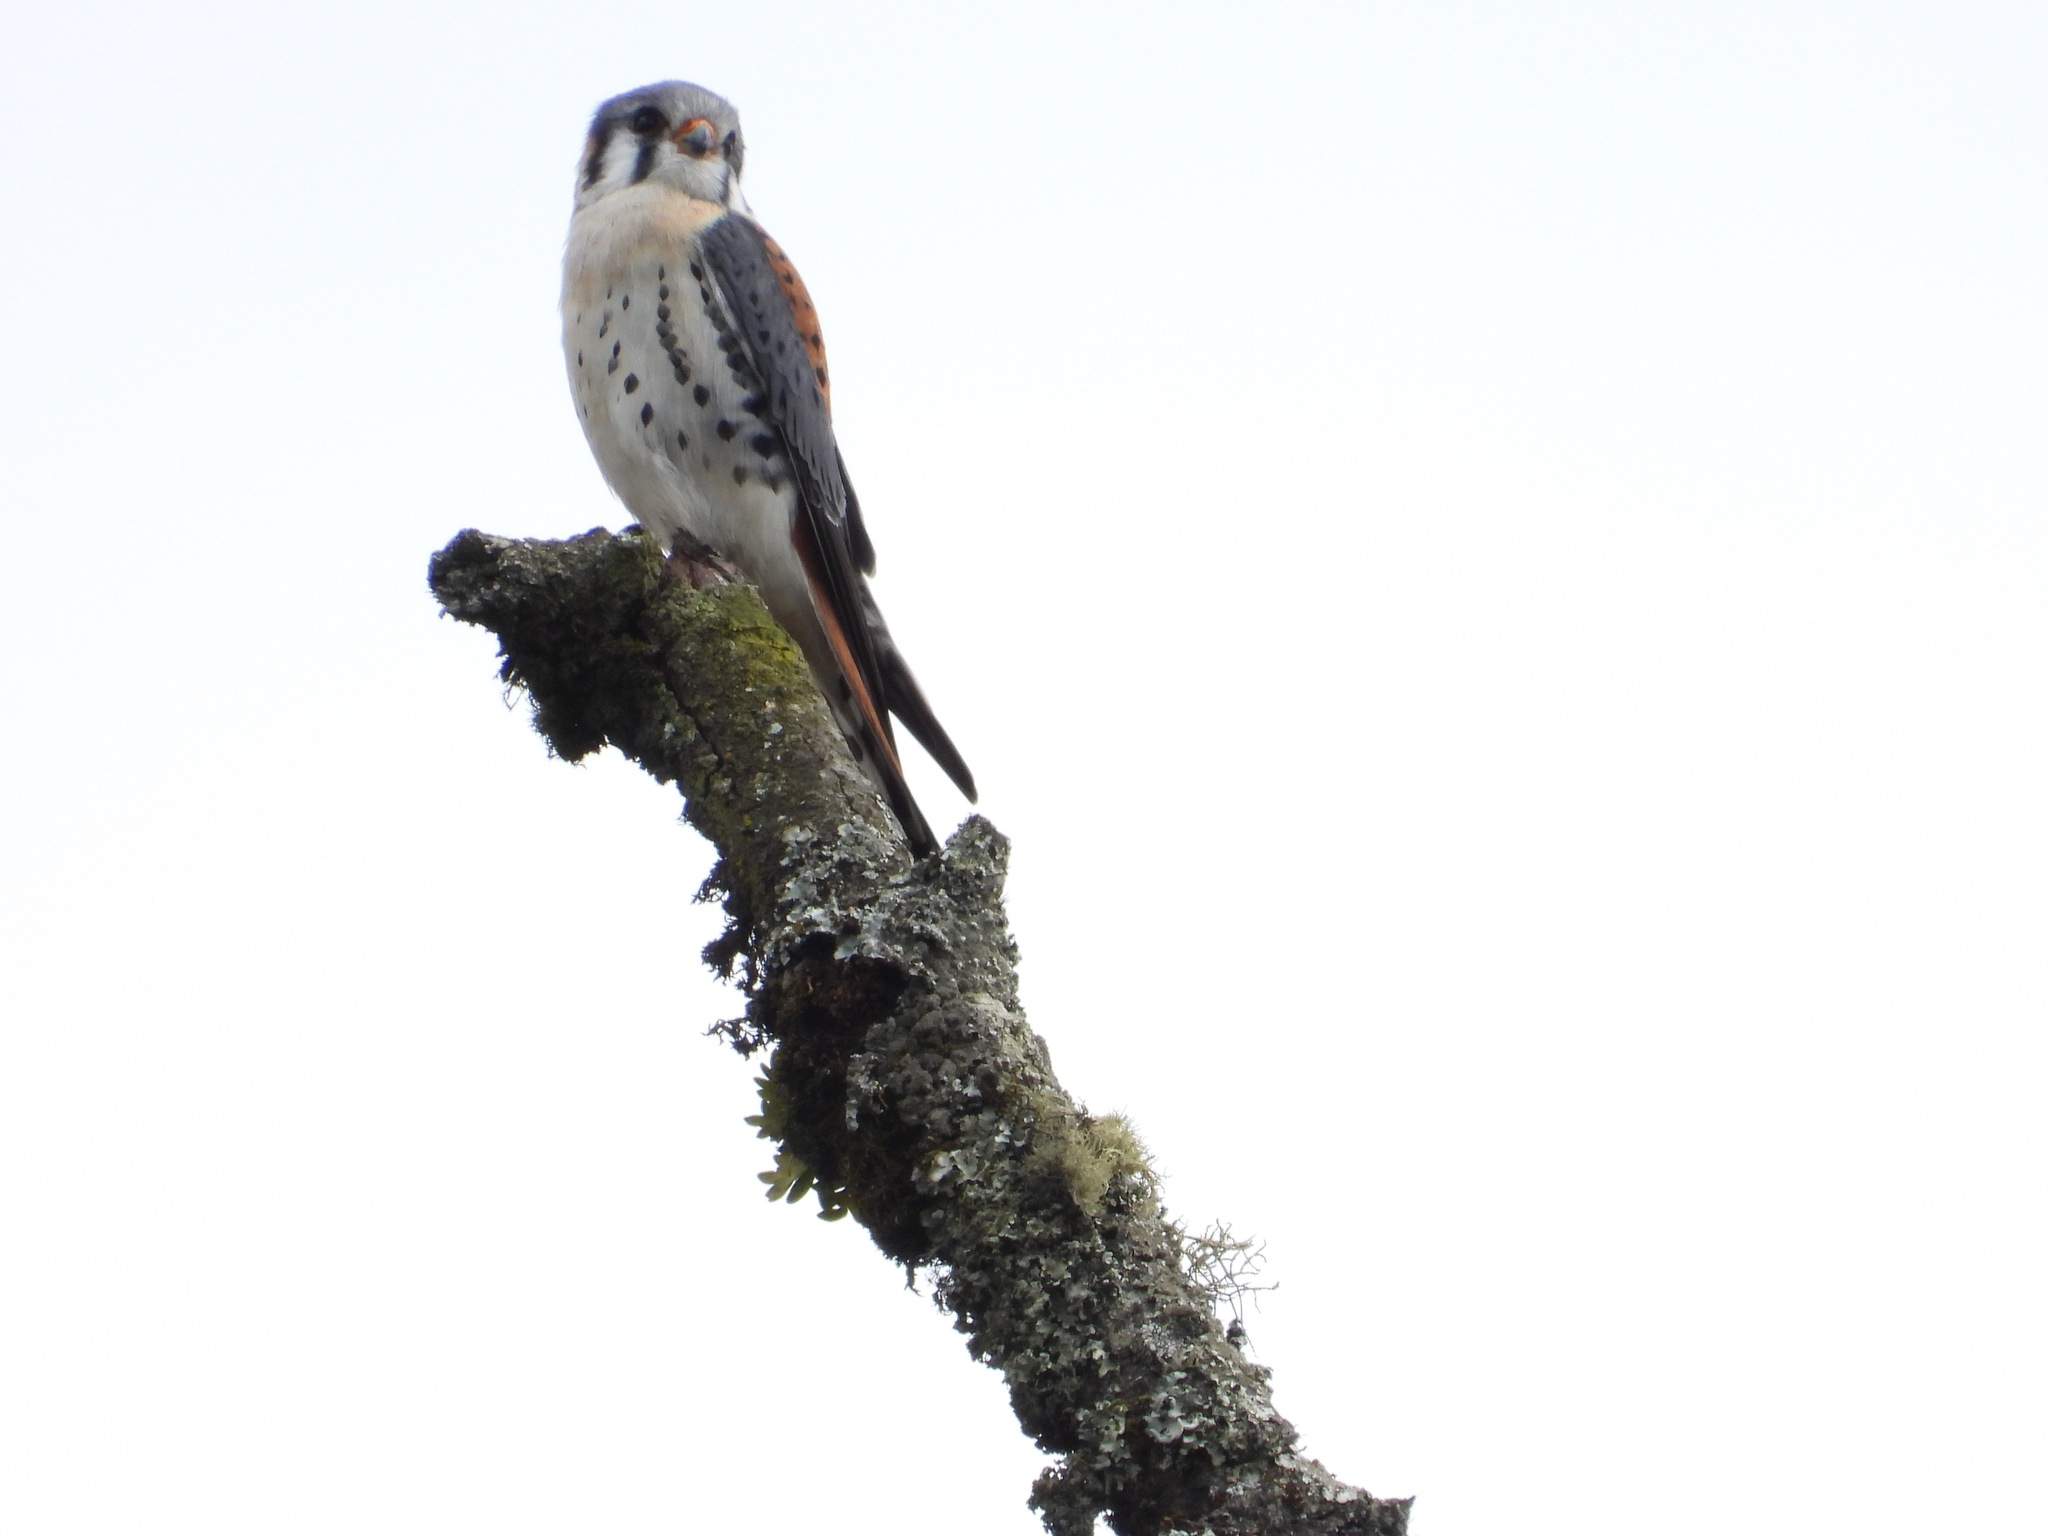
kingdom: Animalia
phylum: Chordata
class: Aves
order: Falconiformes
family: Falconidae
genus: Falco
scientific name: Falco sparverius
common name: American kestrel
